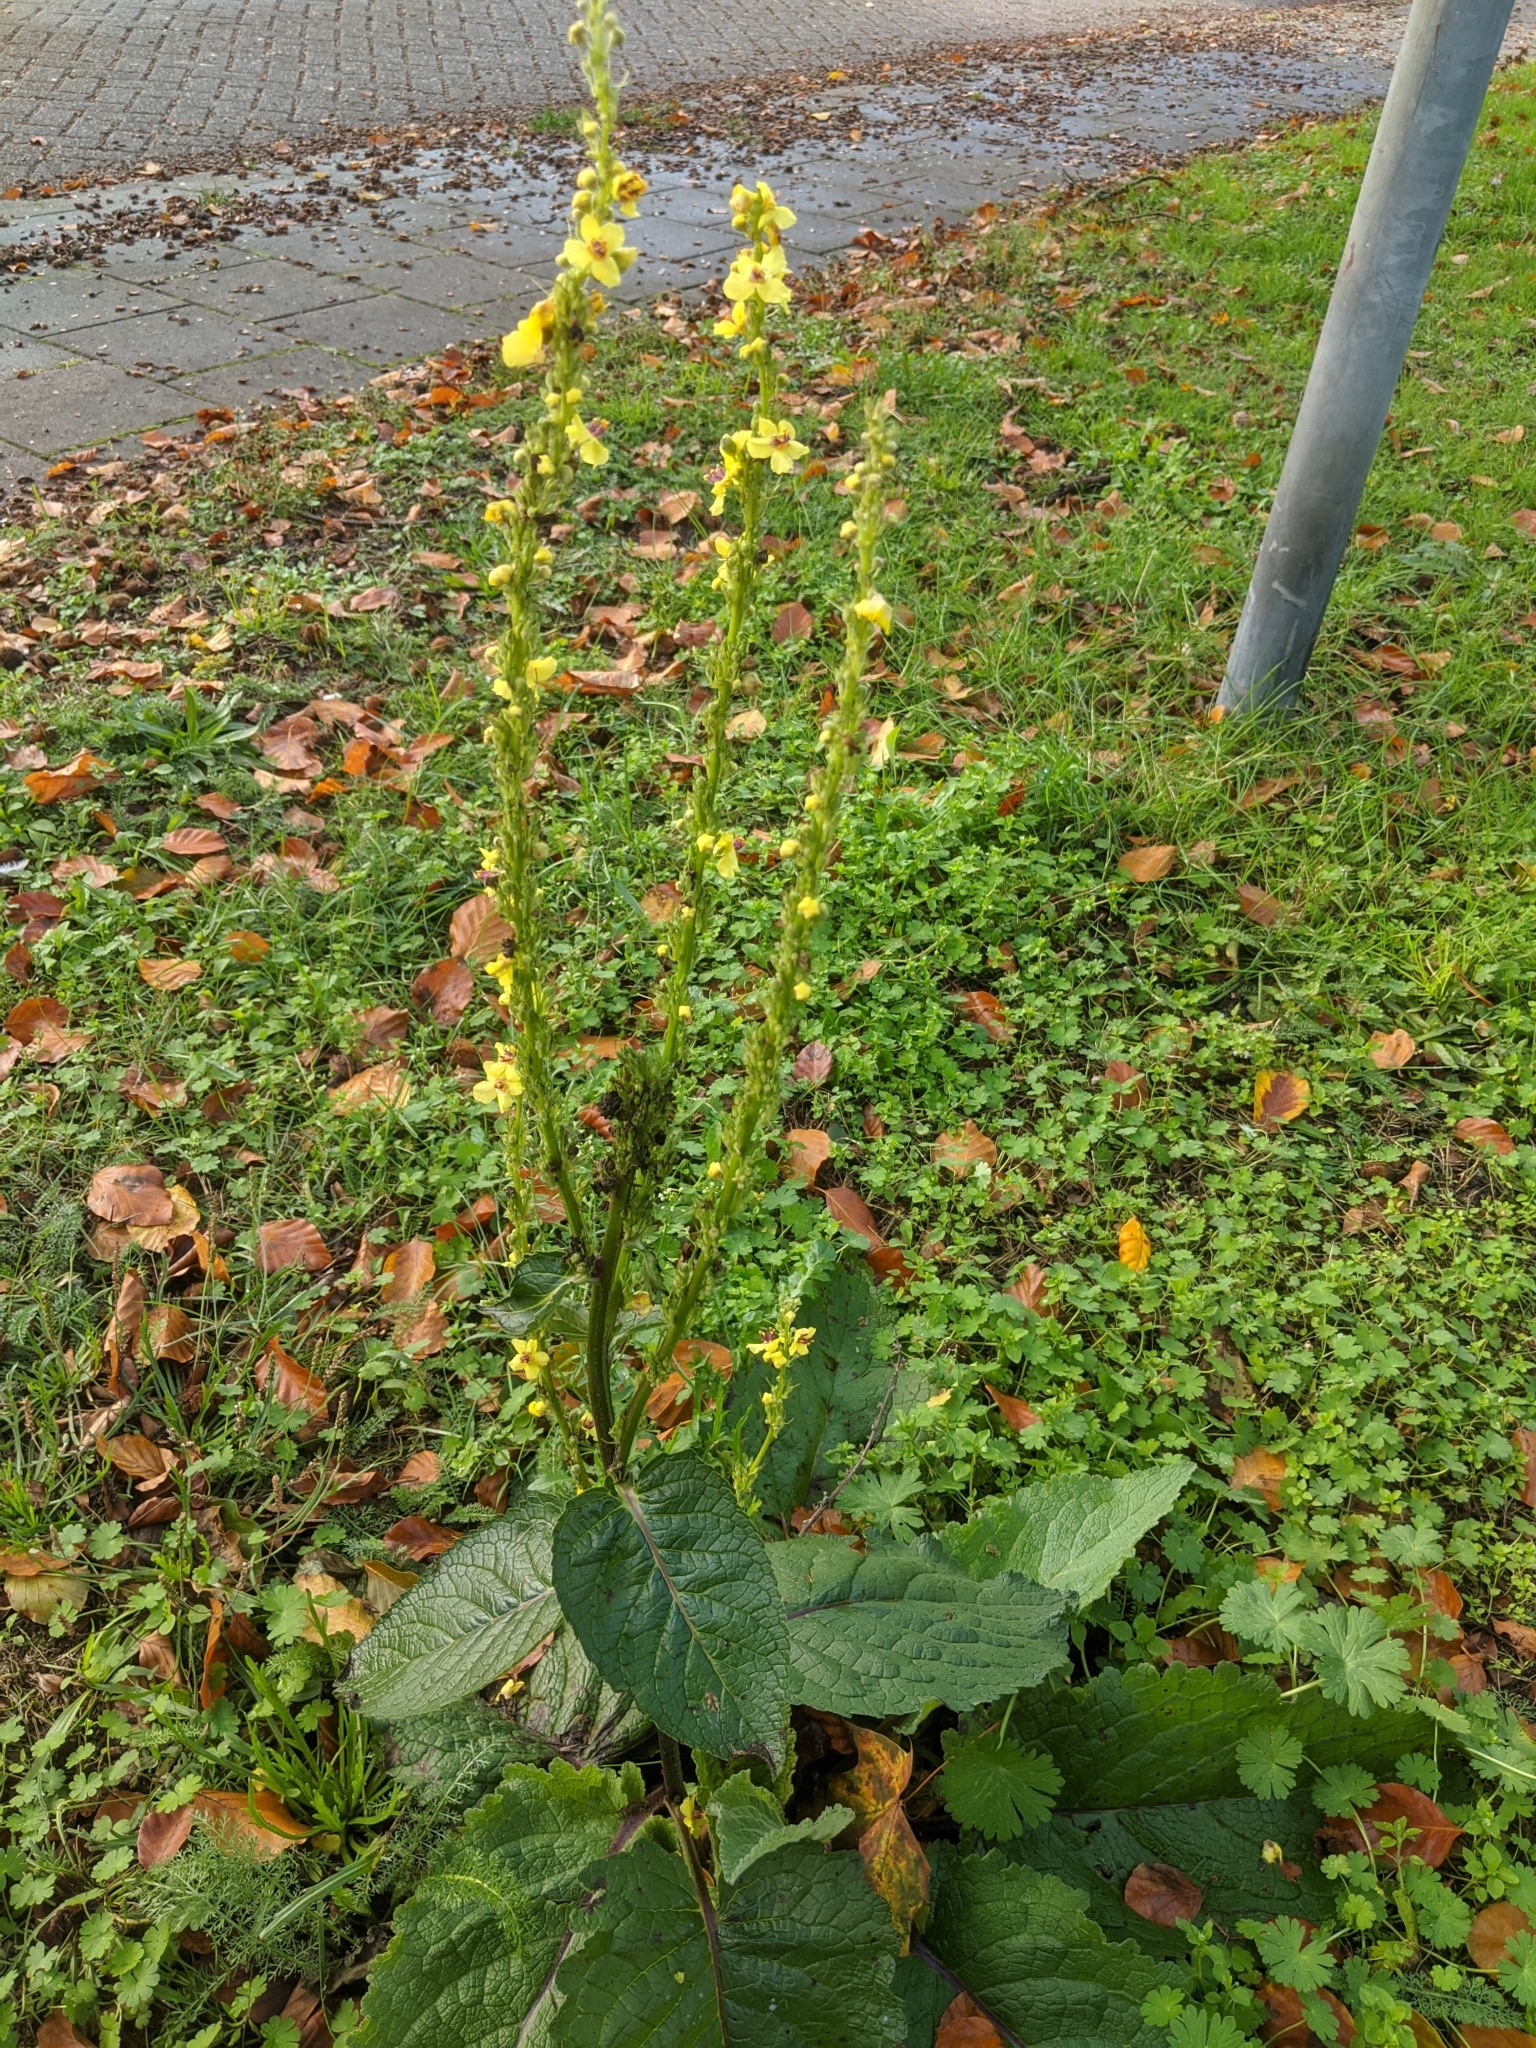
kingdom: Plantae
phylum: Tracheophyta
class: Magnoliopsida
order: Lamiales
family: Scrophulariaceae
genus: Verbascum
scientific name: Verbascum nigrum
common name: Dark mullein
